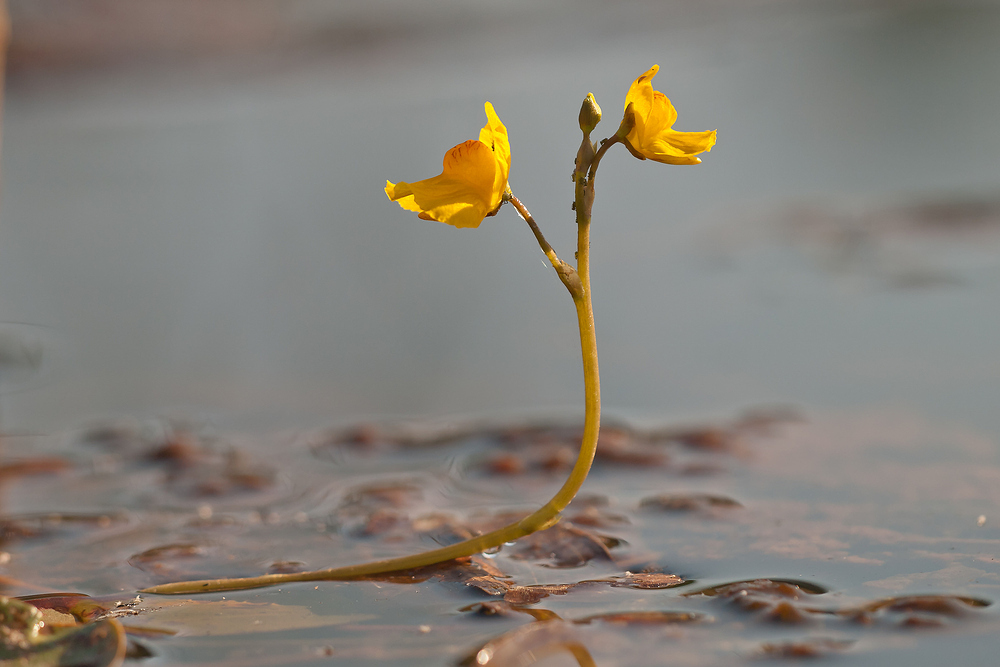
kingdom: Plantae
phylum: Tracheophyta
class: Magnoliopsida
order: Lamiales
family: Lentibulariaceae
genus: Utricularia
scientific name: Utricularia australis
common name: Bladderwort
